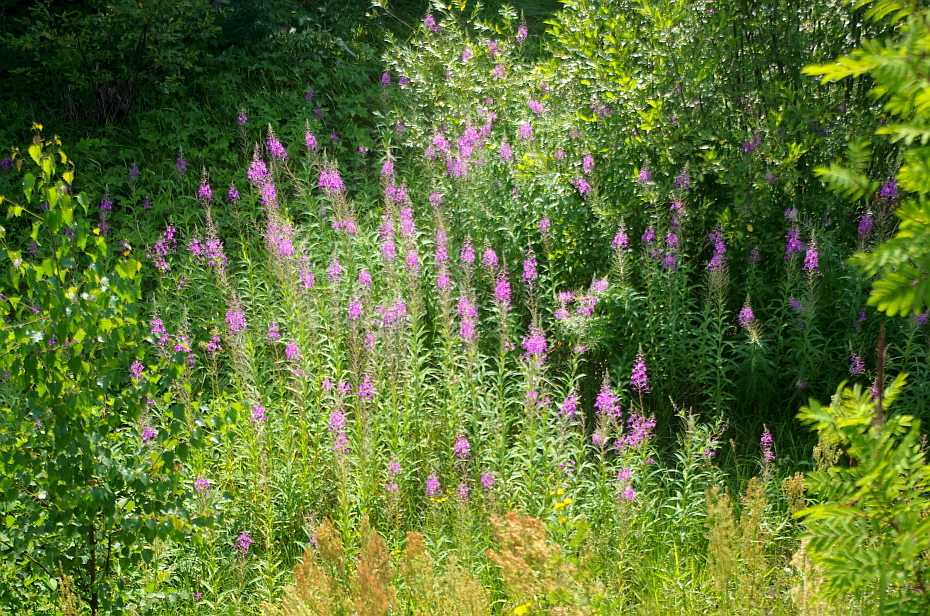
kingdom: Plantae
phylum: Tracheophyta
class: Magnoliopsida
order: Myrtales
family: Onagraceae
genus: Chamaenerion
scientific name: Chamaenerion angustifolium
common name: Fireweed
